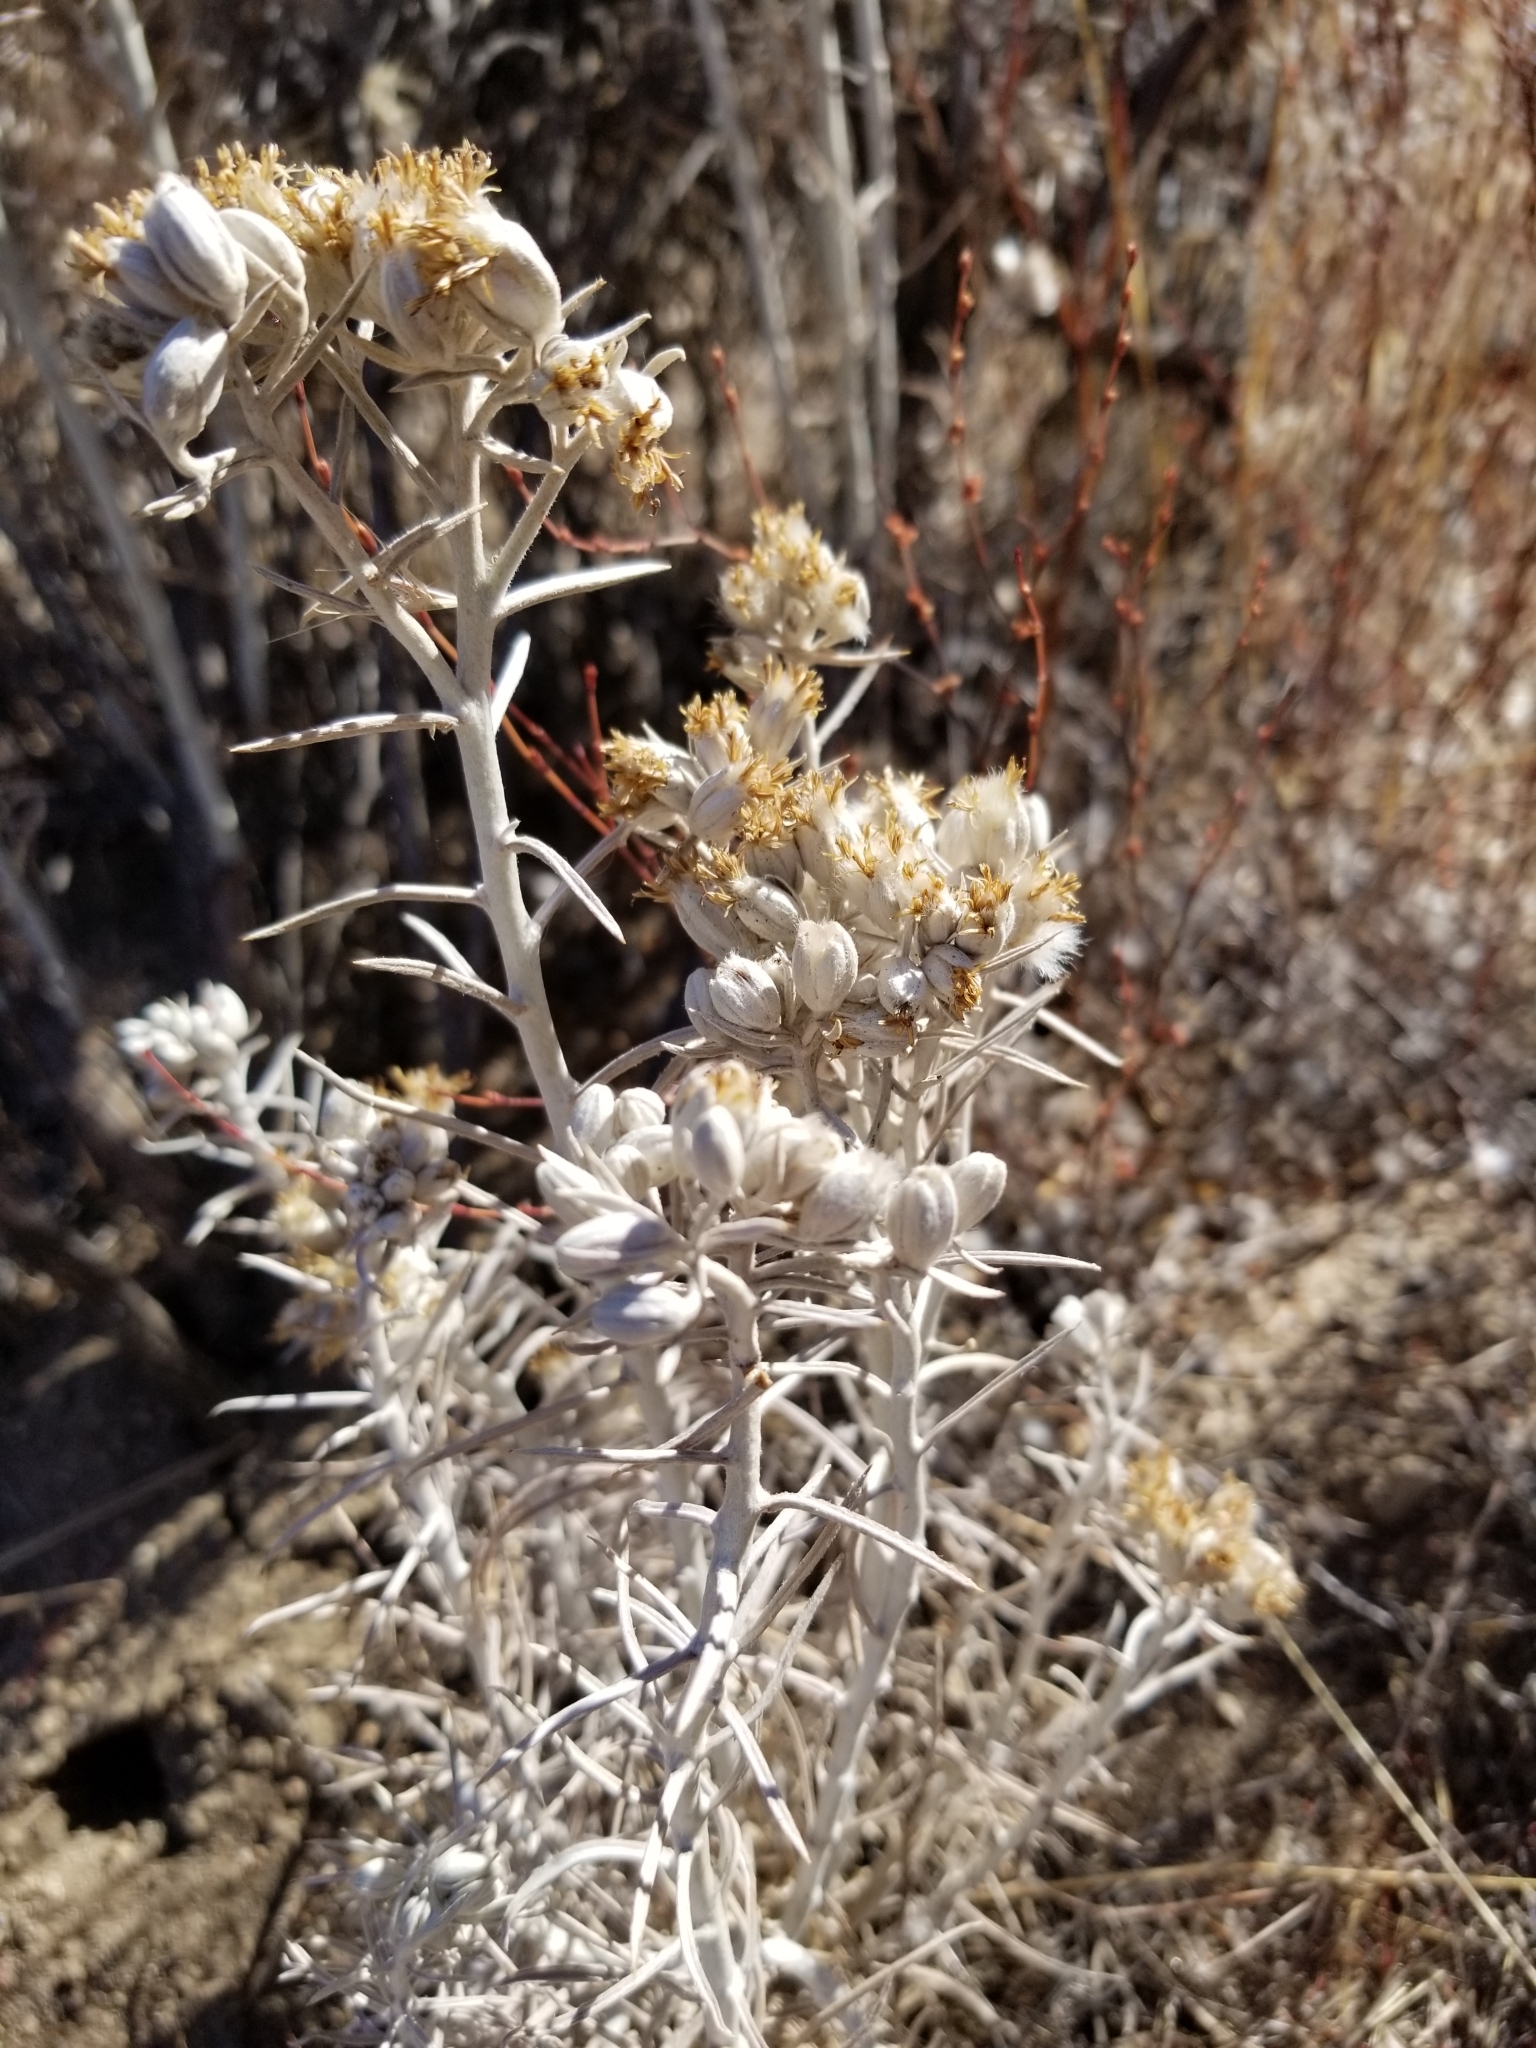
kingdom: Plantae
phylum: Tracheophyta
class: Magnoliopsida
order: Asterales
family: Asteraceae
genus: Tetradymia
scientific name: Tetradymia comosa
